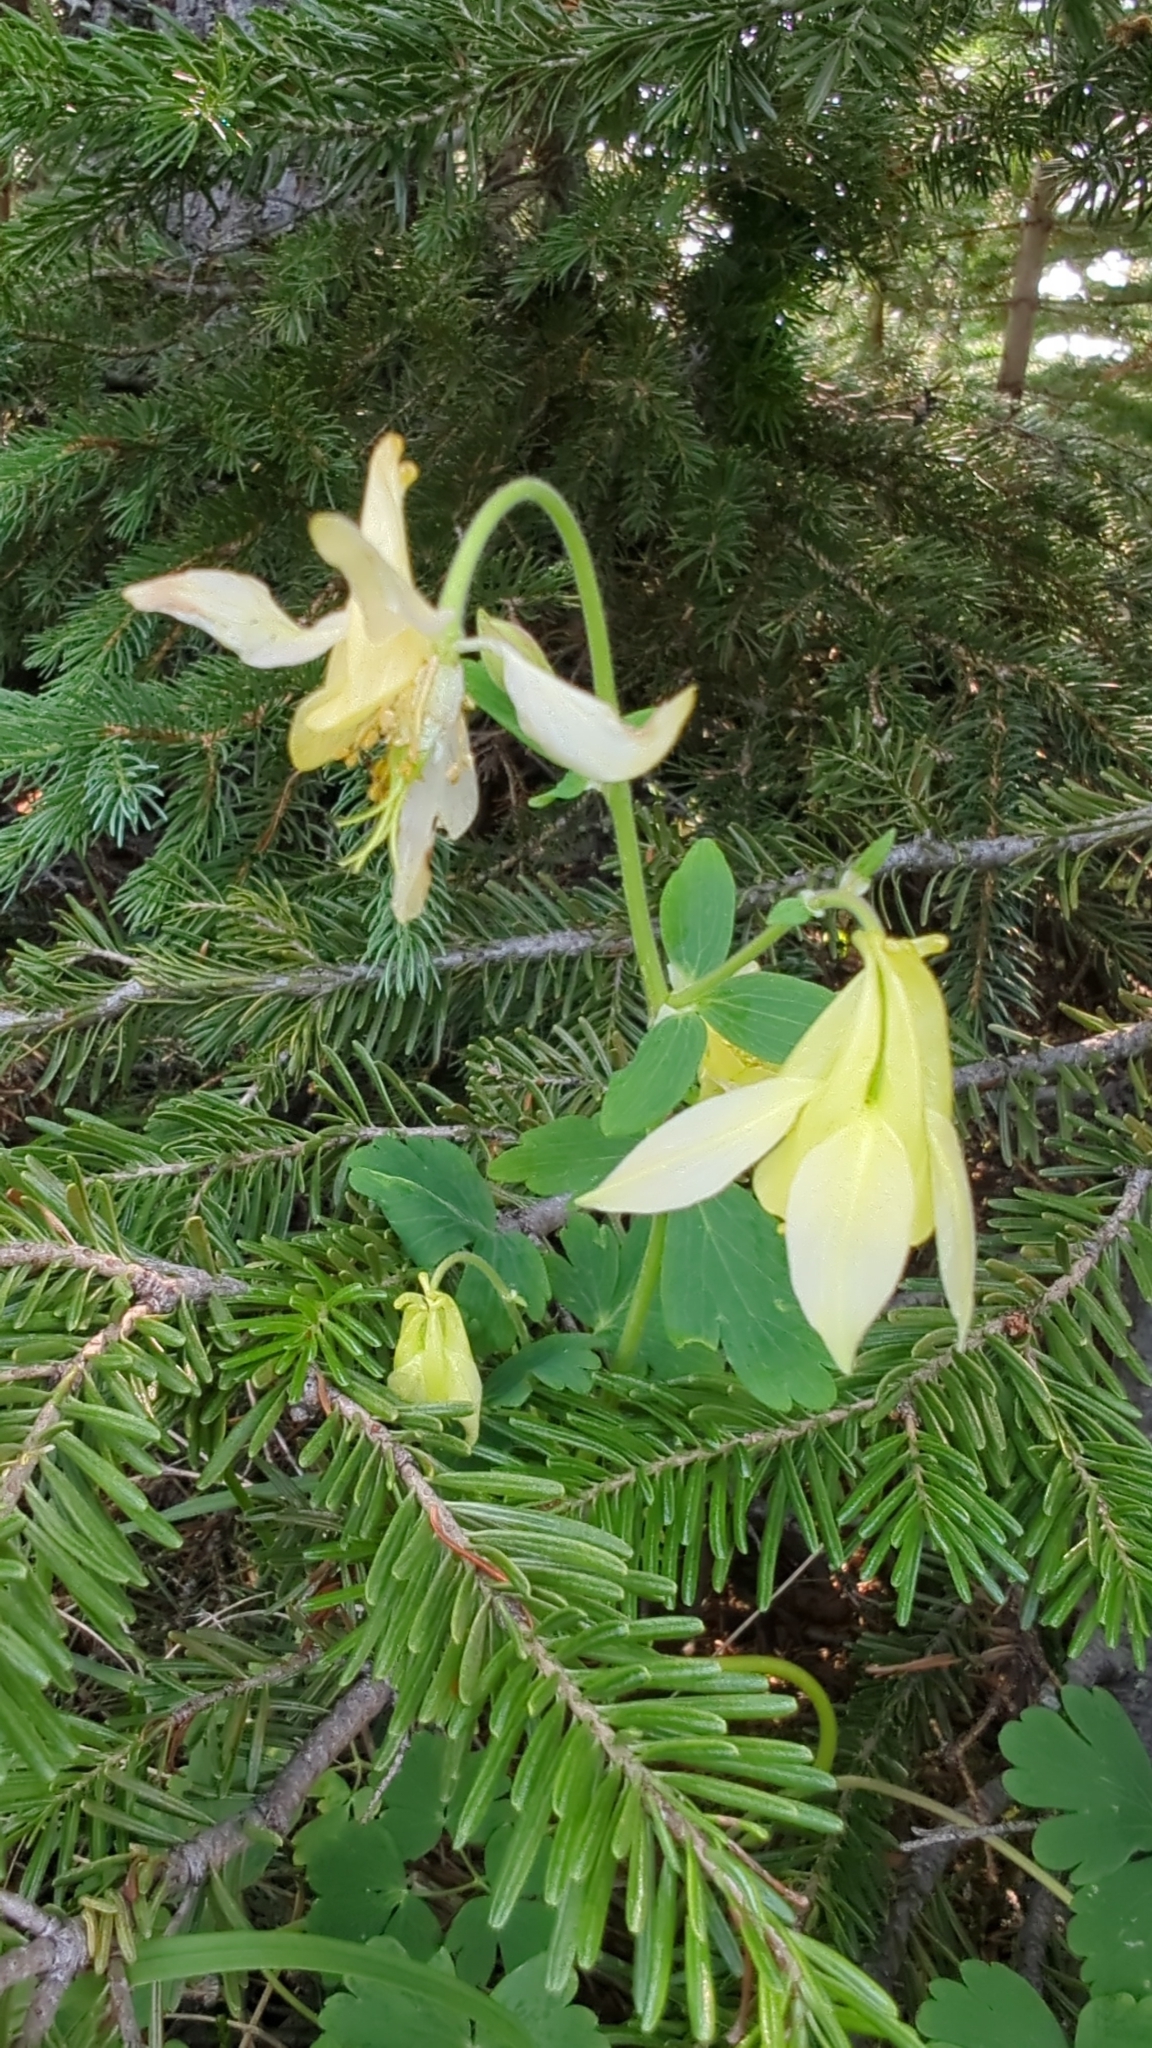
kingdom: Plantae
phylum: Tracheophyta
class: Magnoliopsida
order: Ranunculales
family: Ranunculaceae
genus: Aquilegia
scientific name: Aquilegia flavescens
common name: Yellow columbine
